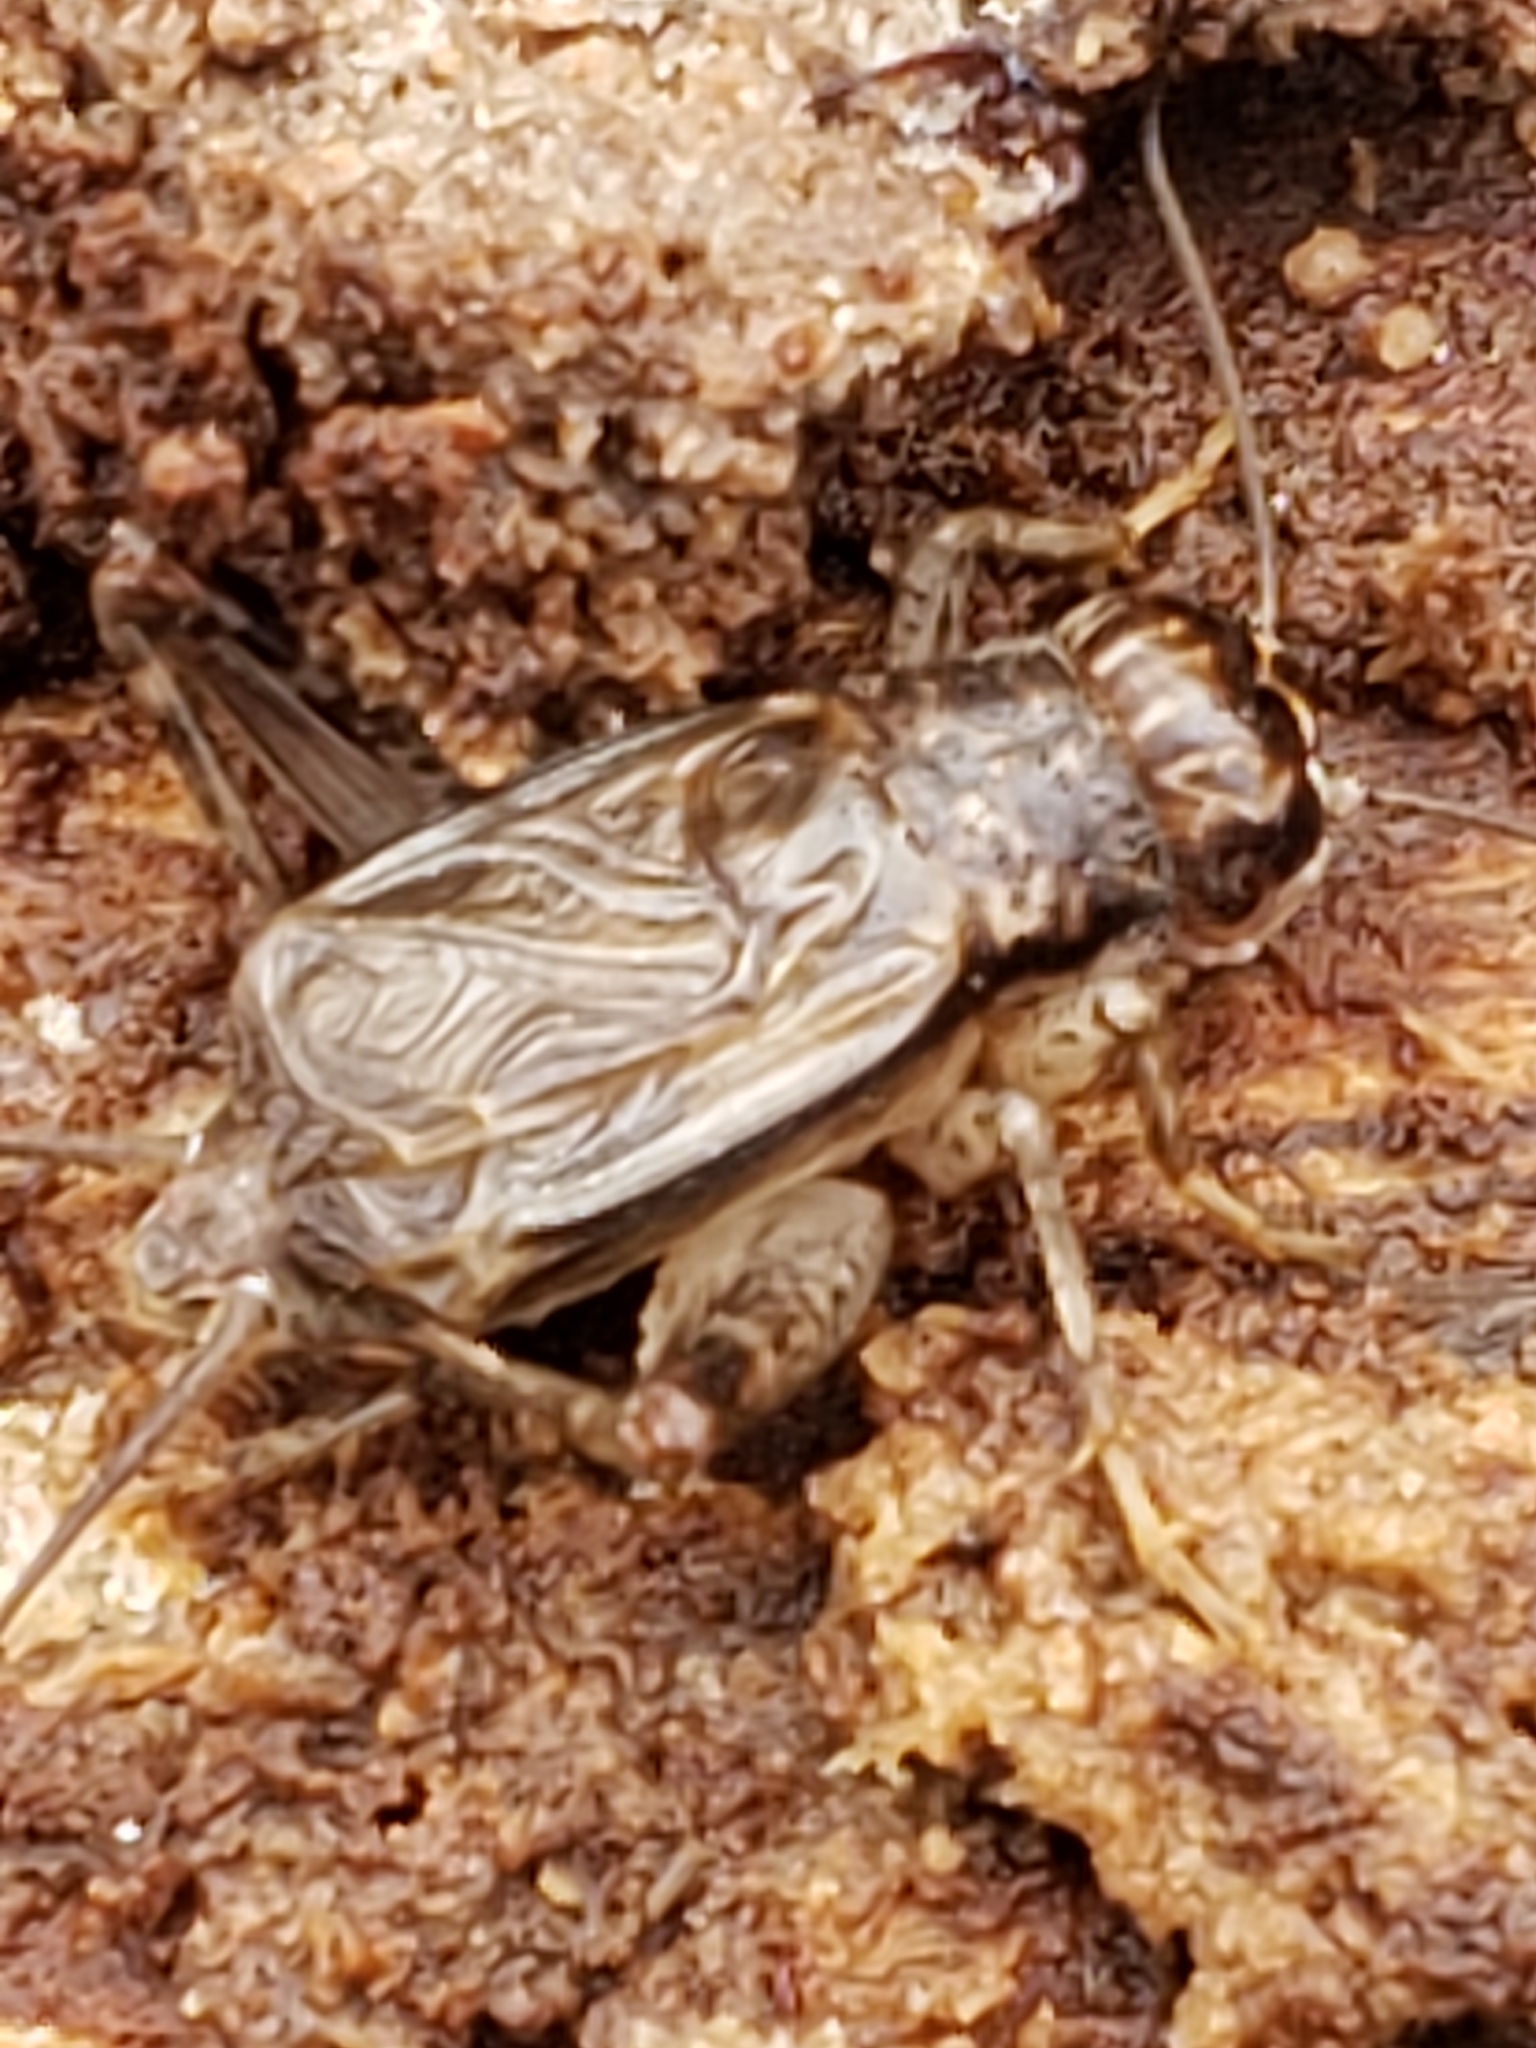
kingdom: Animalia
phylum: Arthropoda
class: Insecta
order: Orthoptera
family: Gryllidae
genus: Velarifictorus
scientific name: Velarifictorus micado
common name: Japanese burrowing cricket
